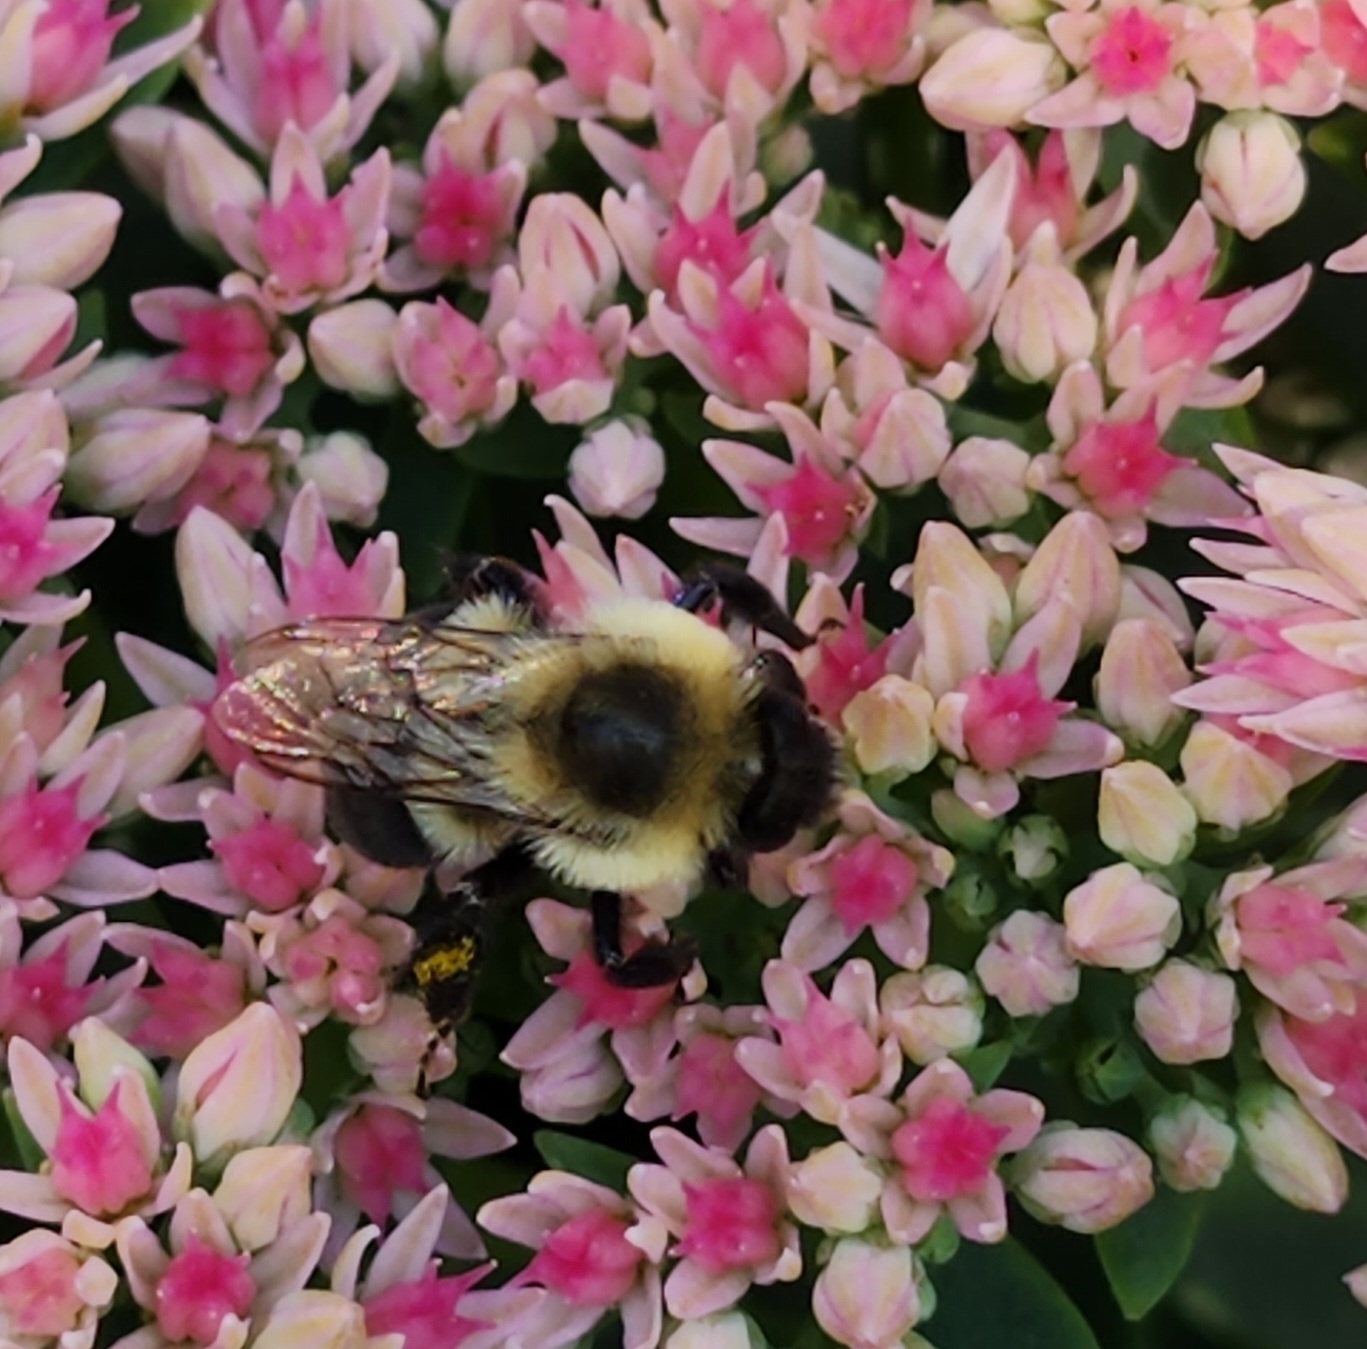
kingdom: Animalia
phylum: Arthropoda
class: Insecta
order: Hymenoptera
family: Apidae
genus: Bombus
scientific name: Bombus impatiens
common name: Common eastern bumble bee
